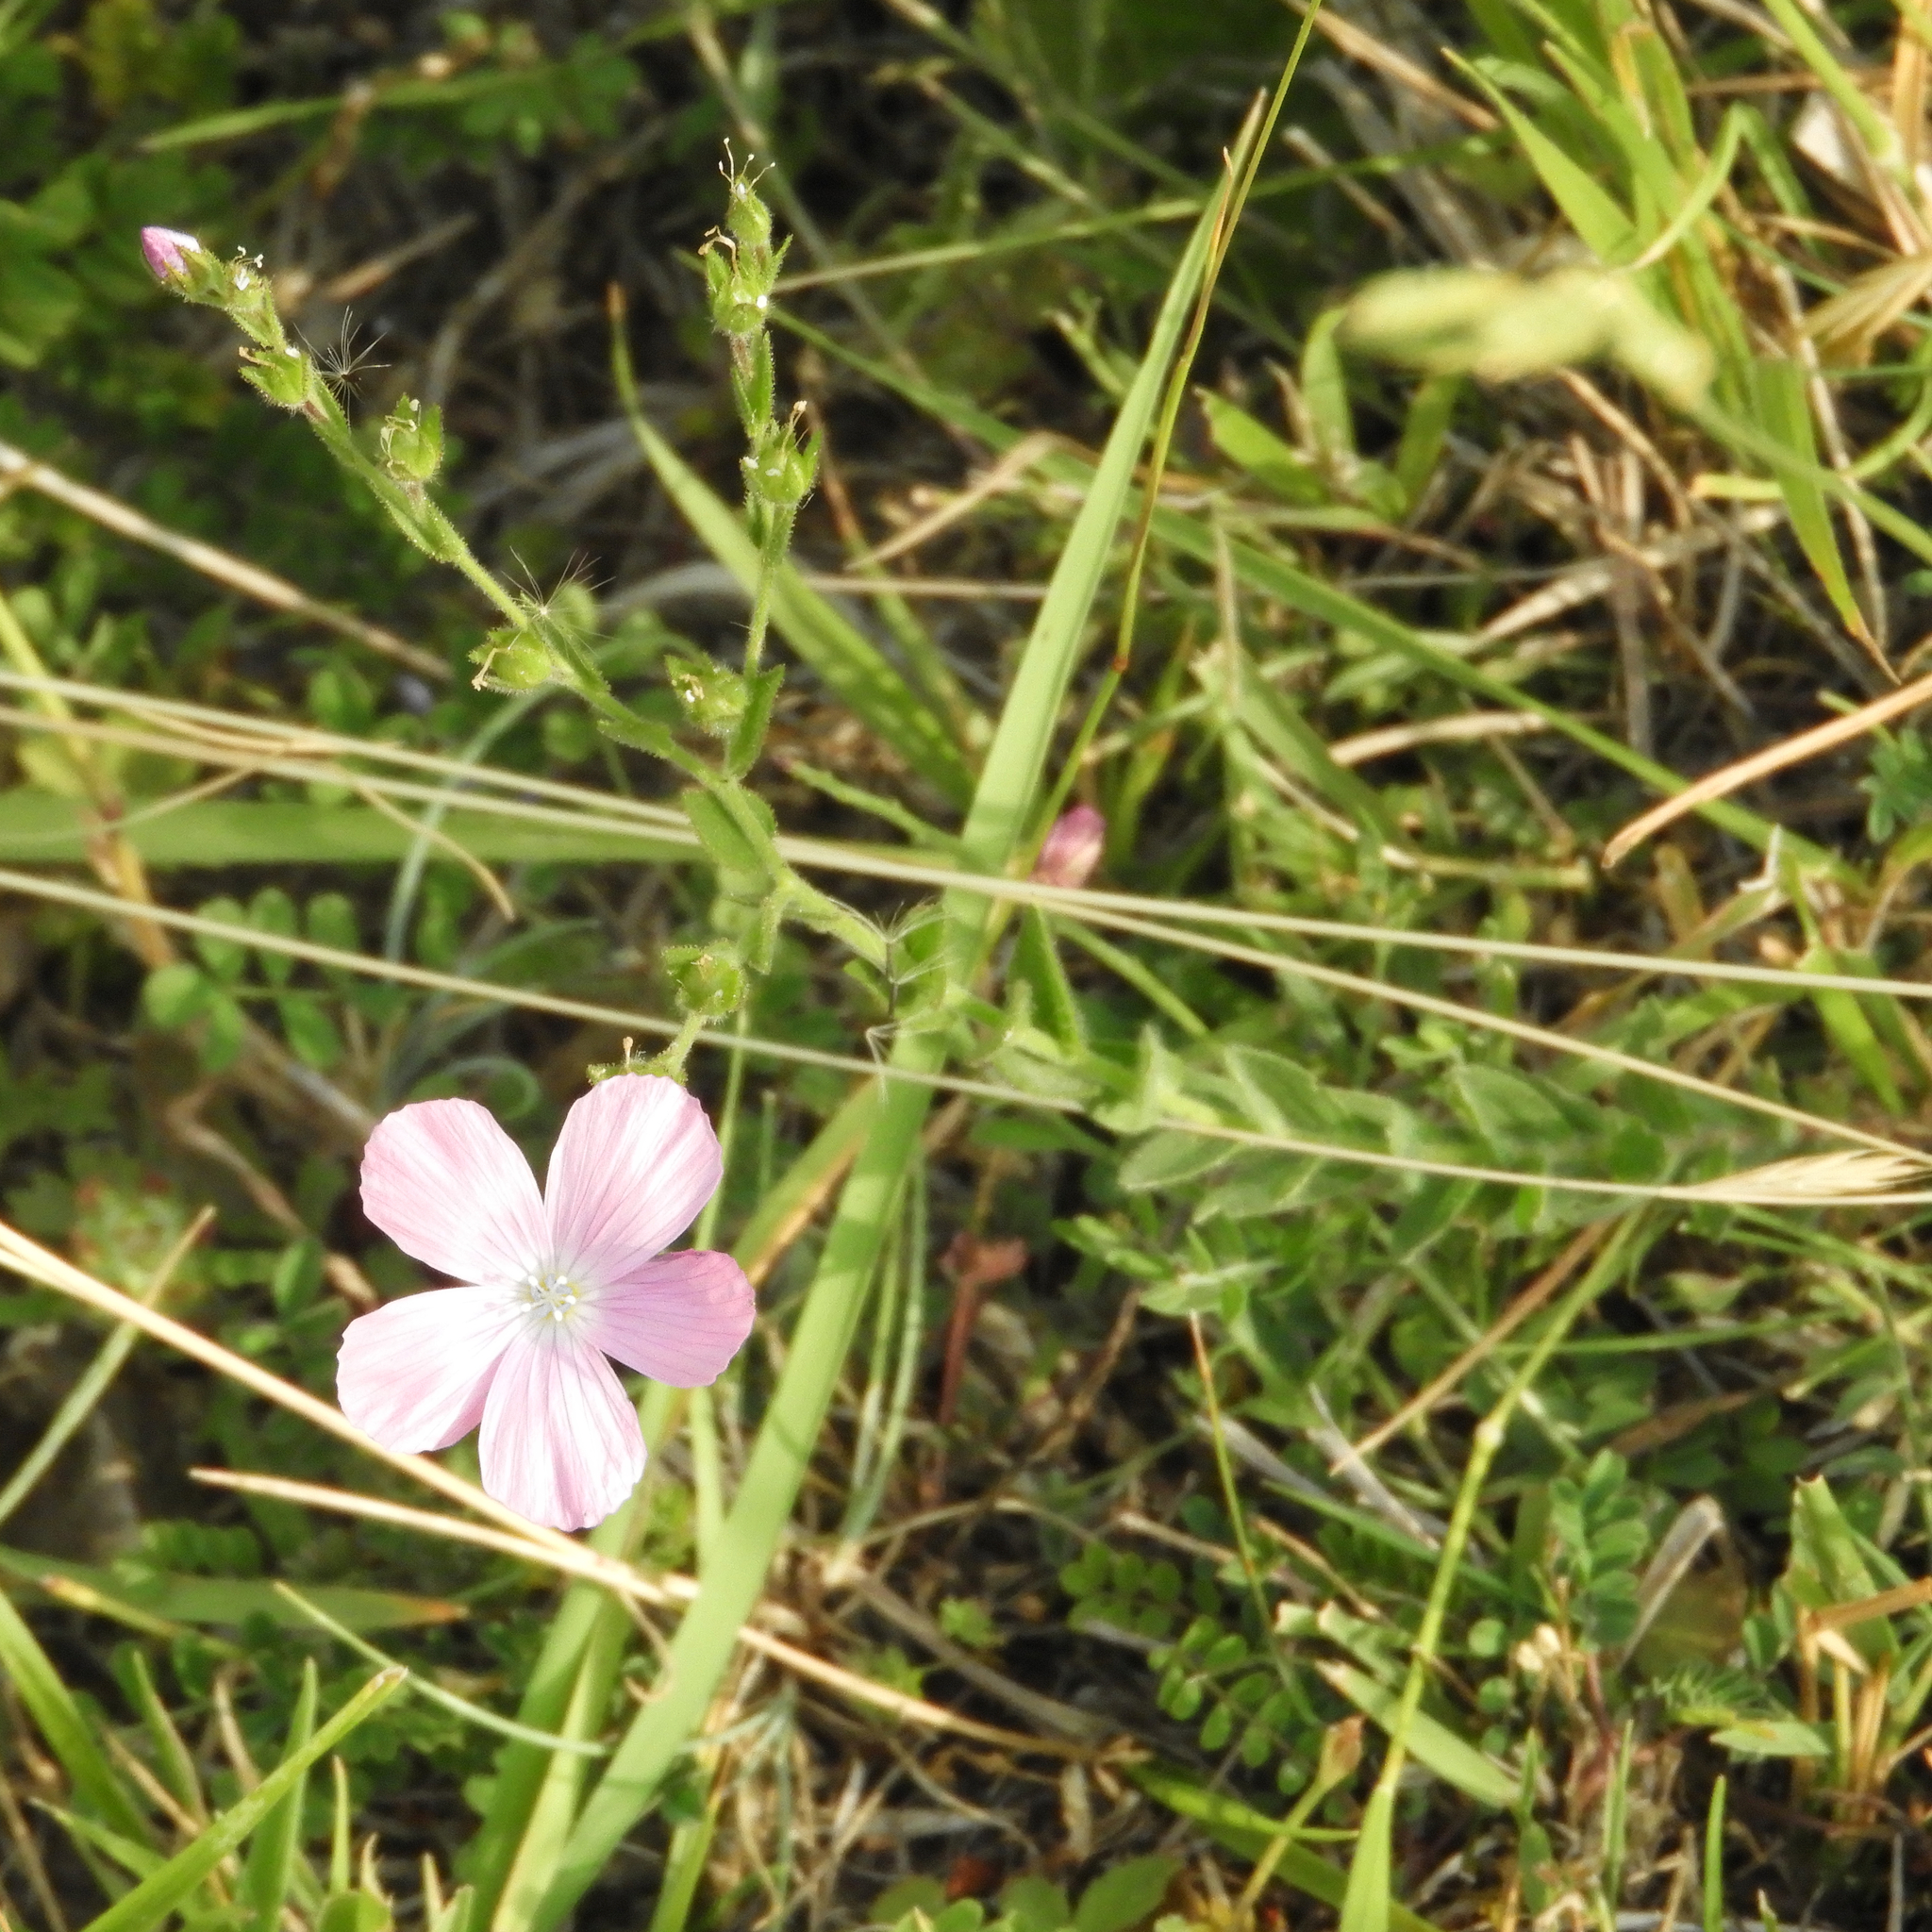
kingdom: Plantae
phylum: Tracheophyta
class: Magnoliopsida
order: Malpighiales
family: Linaceae
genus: Linum
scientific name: Linum viscosum
